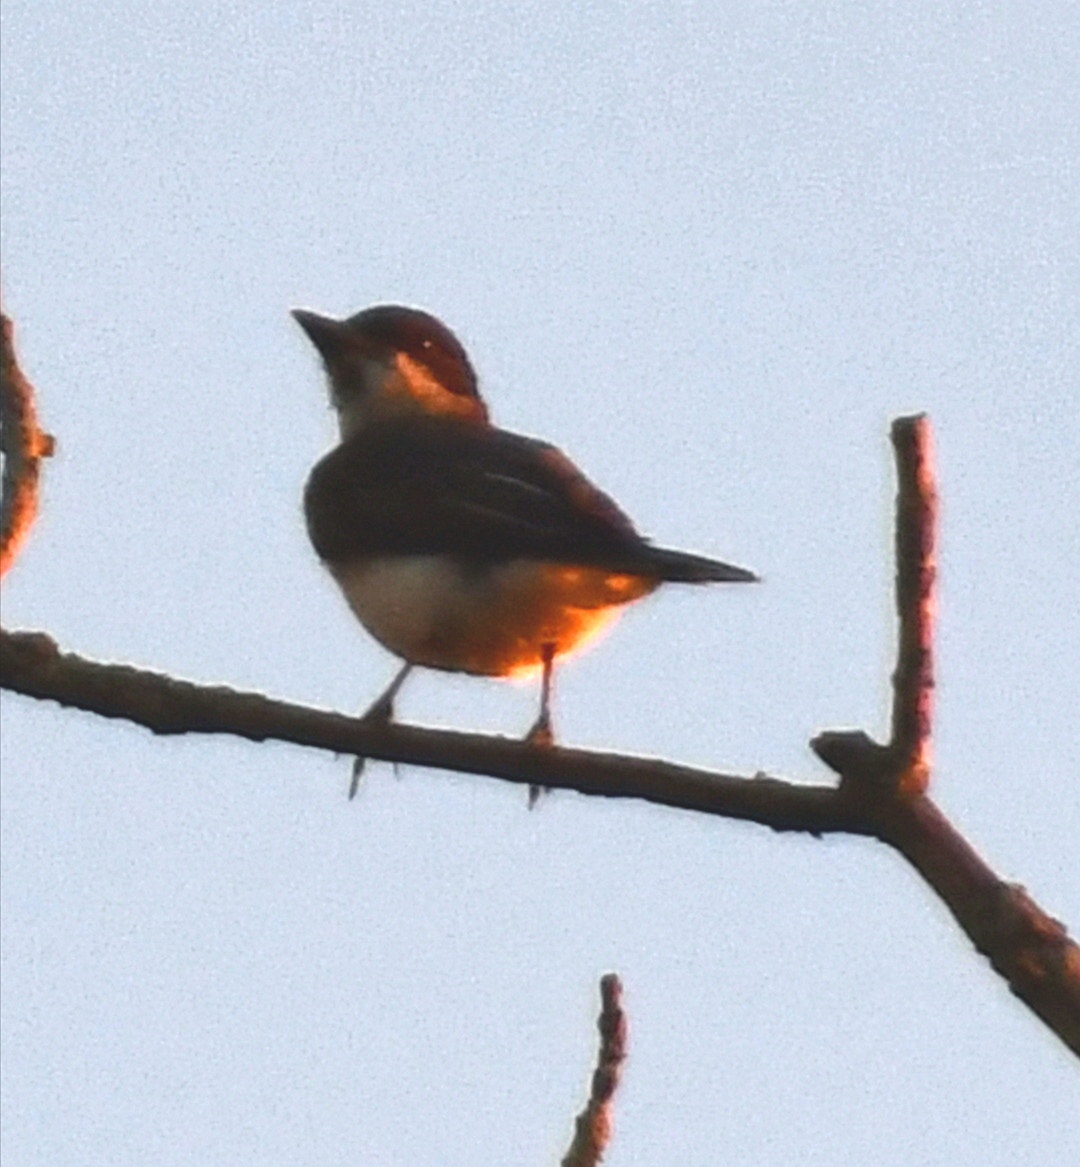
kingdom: Animalia
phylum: Chordata
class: Aves
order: Passeriformes
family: Tyrannidae
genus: Tyrannus
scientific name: Tyrannus tyrannus
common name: Eastern kingbird
